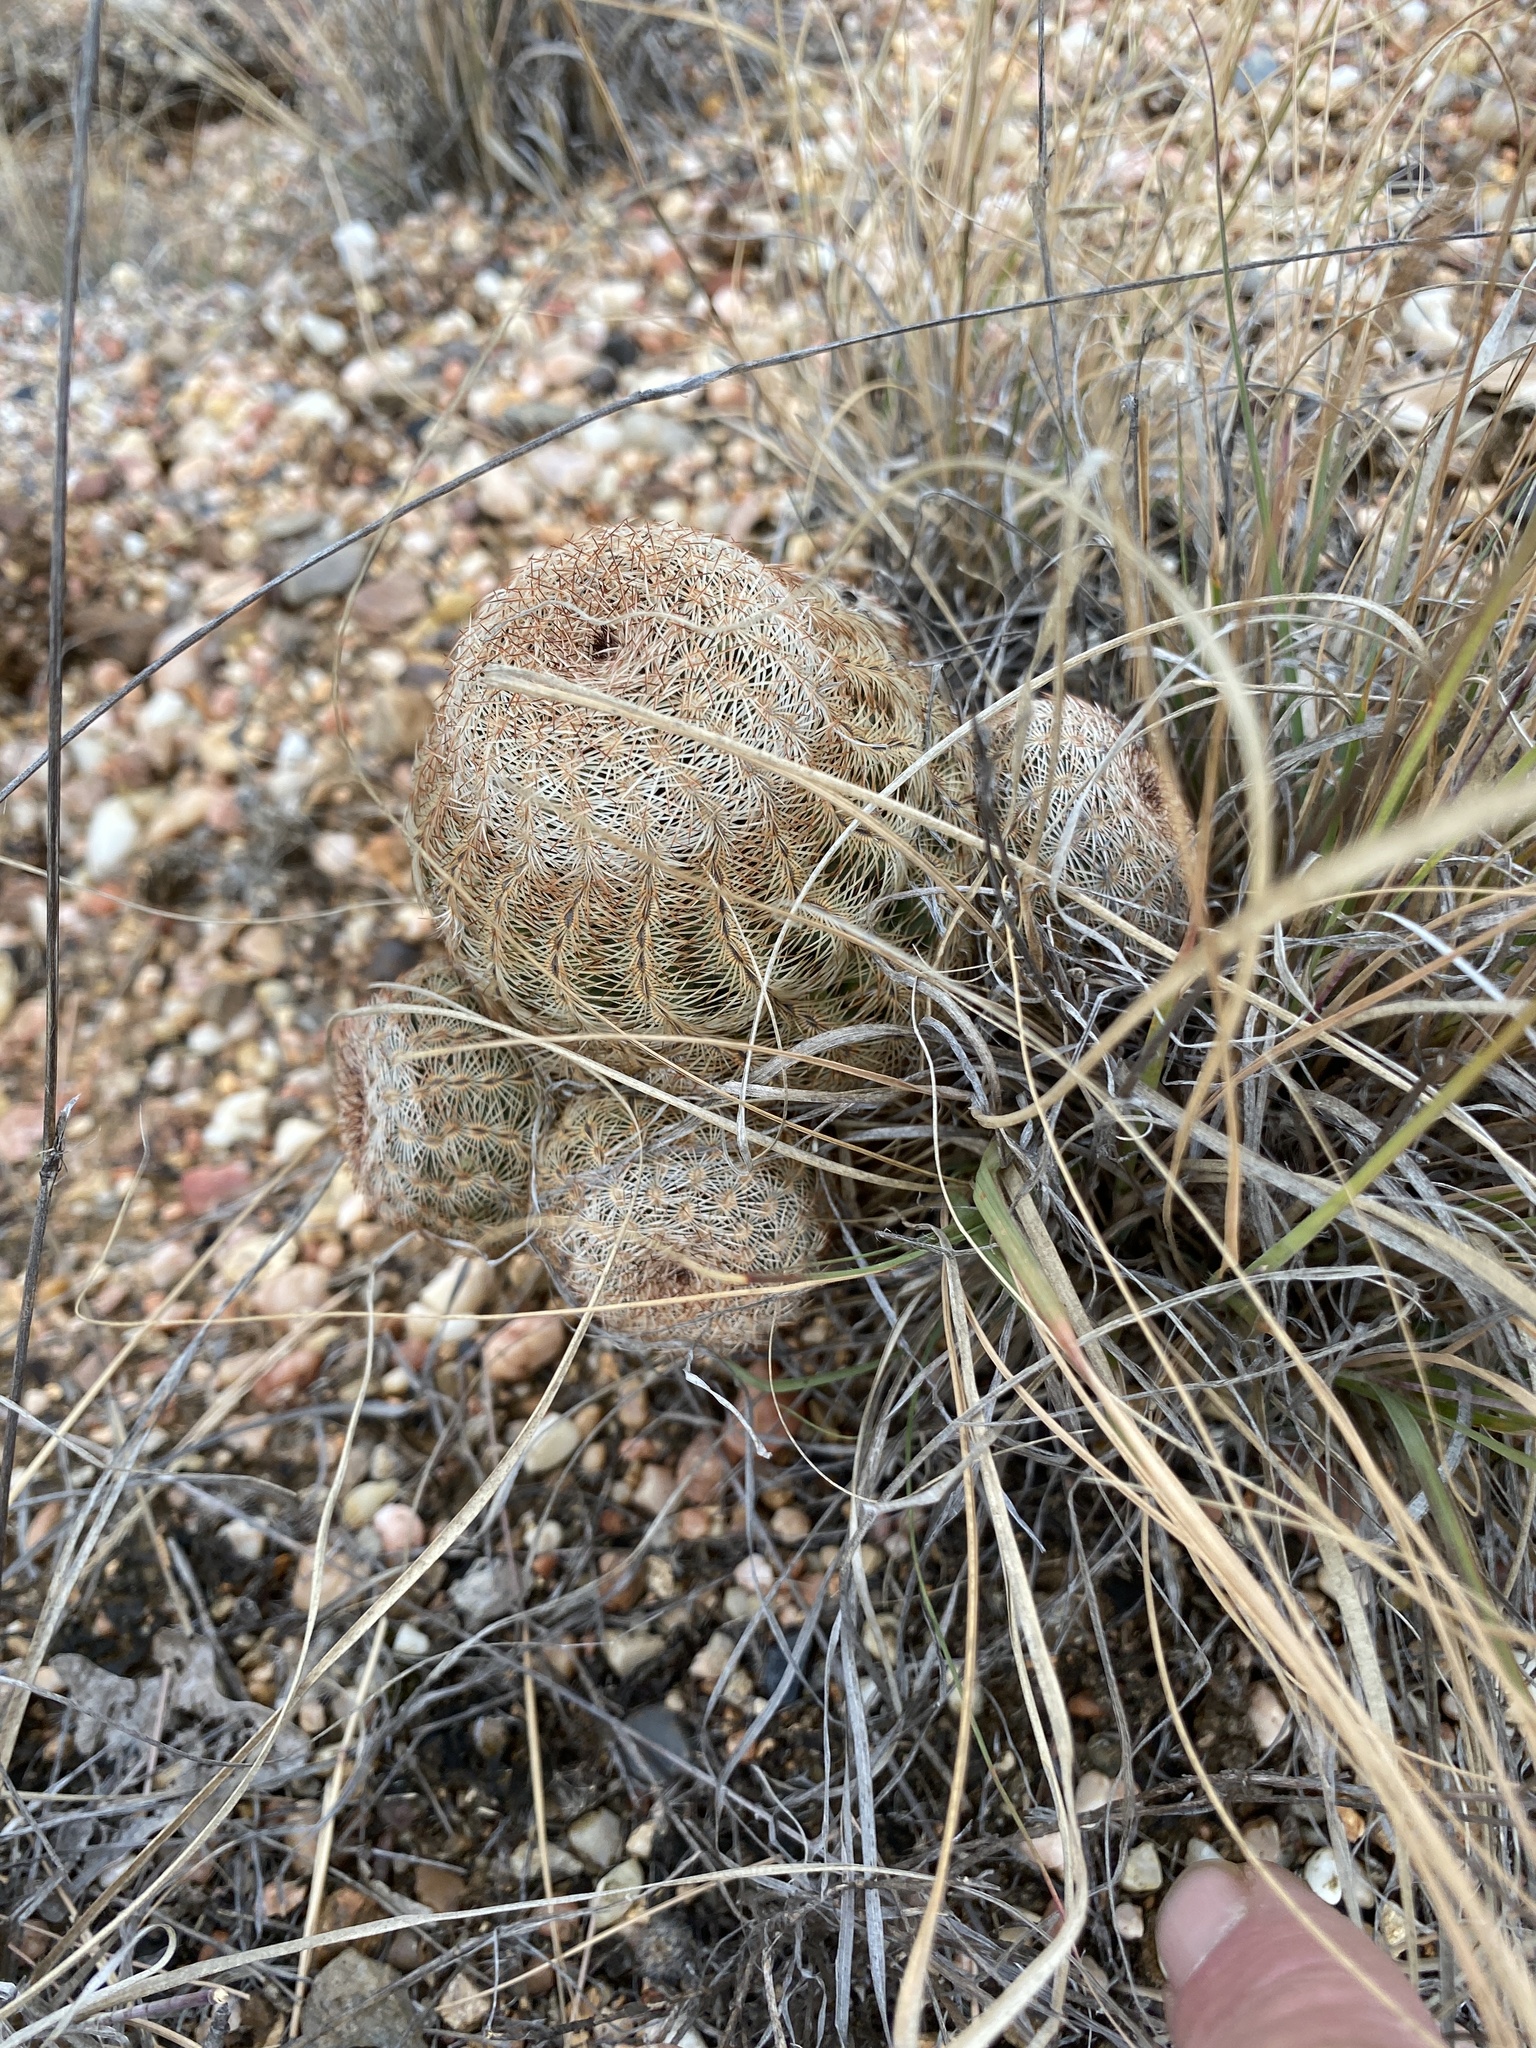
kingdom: Plantae
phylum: Tracheophyta
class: Magnoliopsida
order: Caryophyllales
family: Cactaceae
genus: Echinocereus
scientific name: Echinocereus reichenbachii
